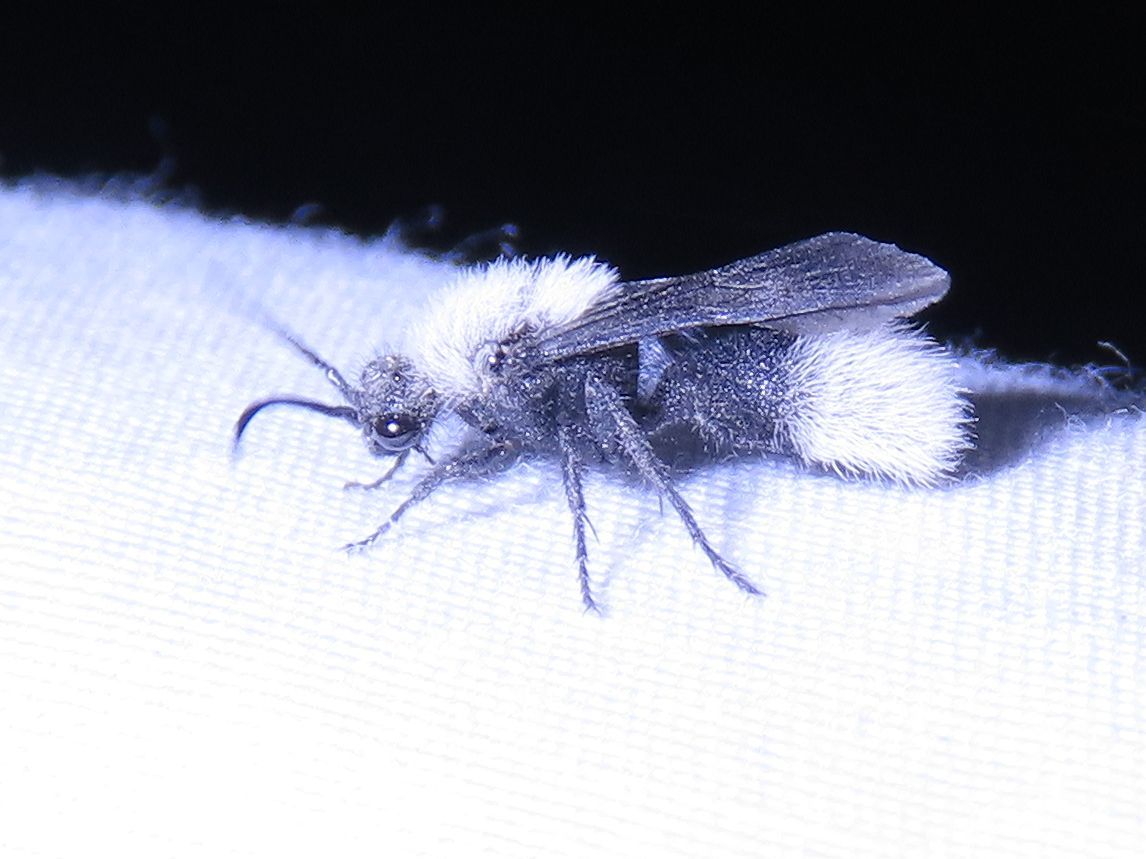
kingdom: Animalia
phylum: Arthropoda
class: Insecta
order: Hymenoptera
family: Mutillidae
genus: Dasymutilla
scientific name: Dasymutilla nocturna
